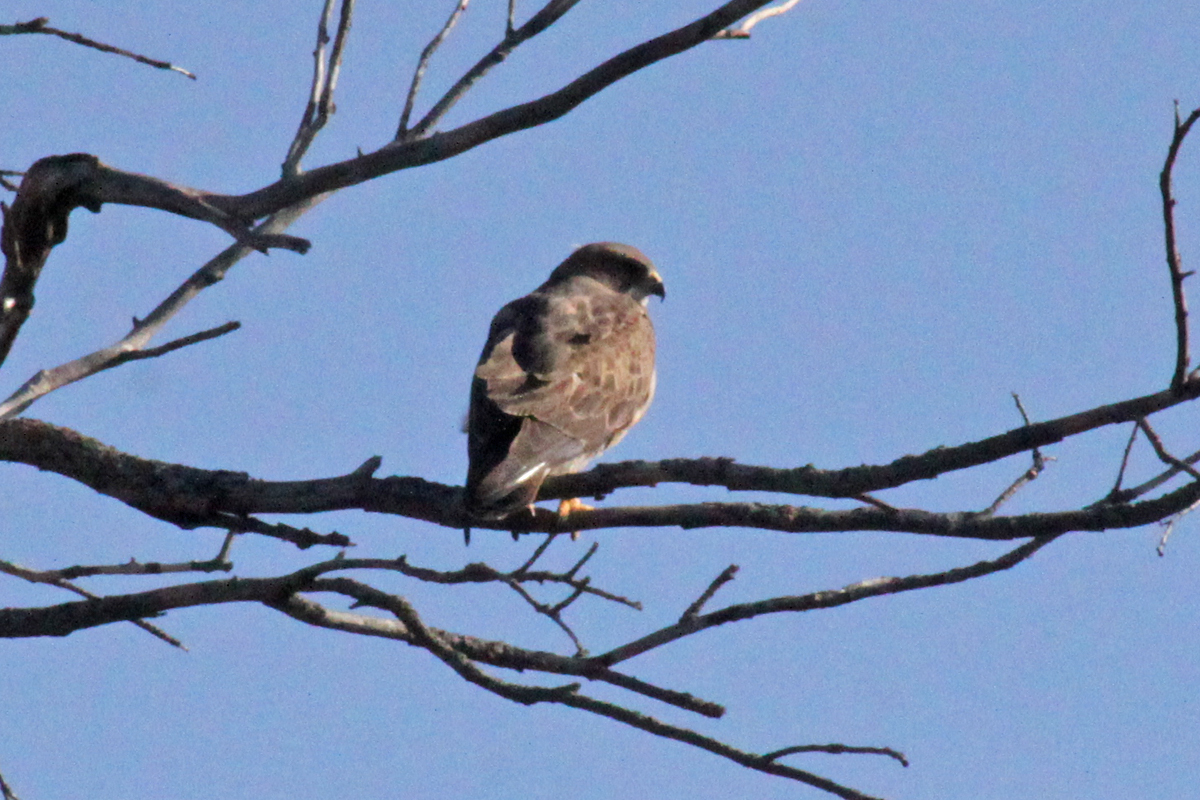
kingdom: Animalia
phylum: Chordata
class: Aves
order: Accipitriformes
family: Accipitridae
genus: Buteo
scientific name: Buteo swainsoni
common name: Swainson's hawk
